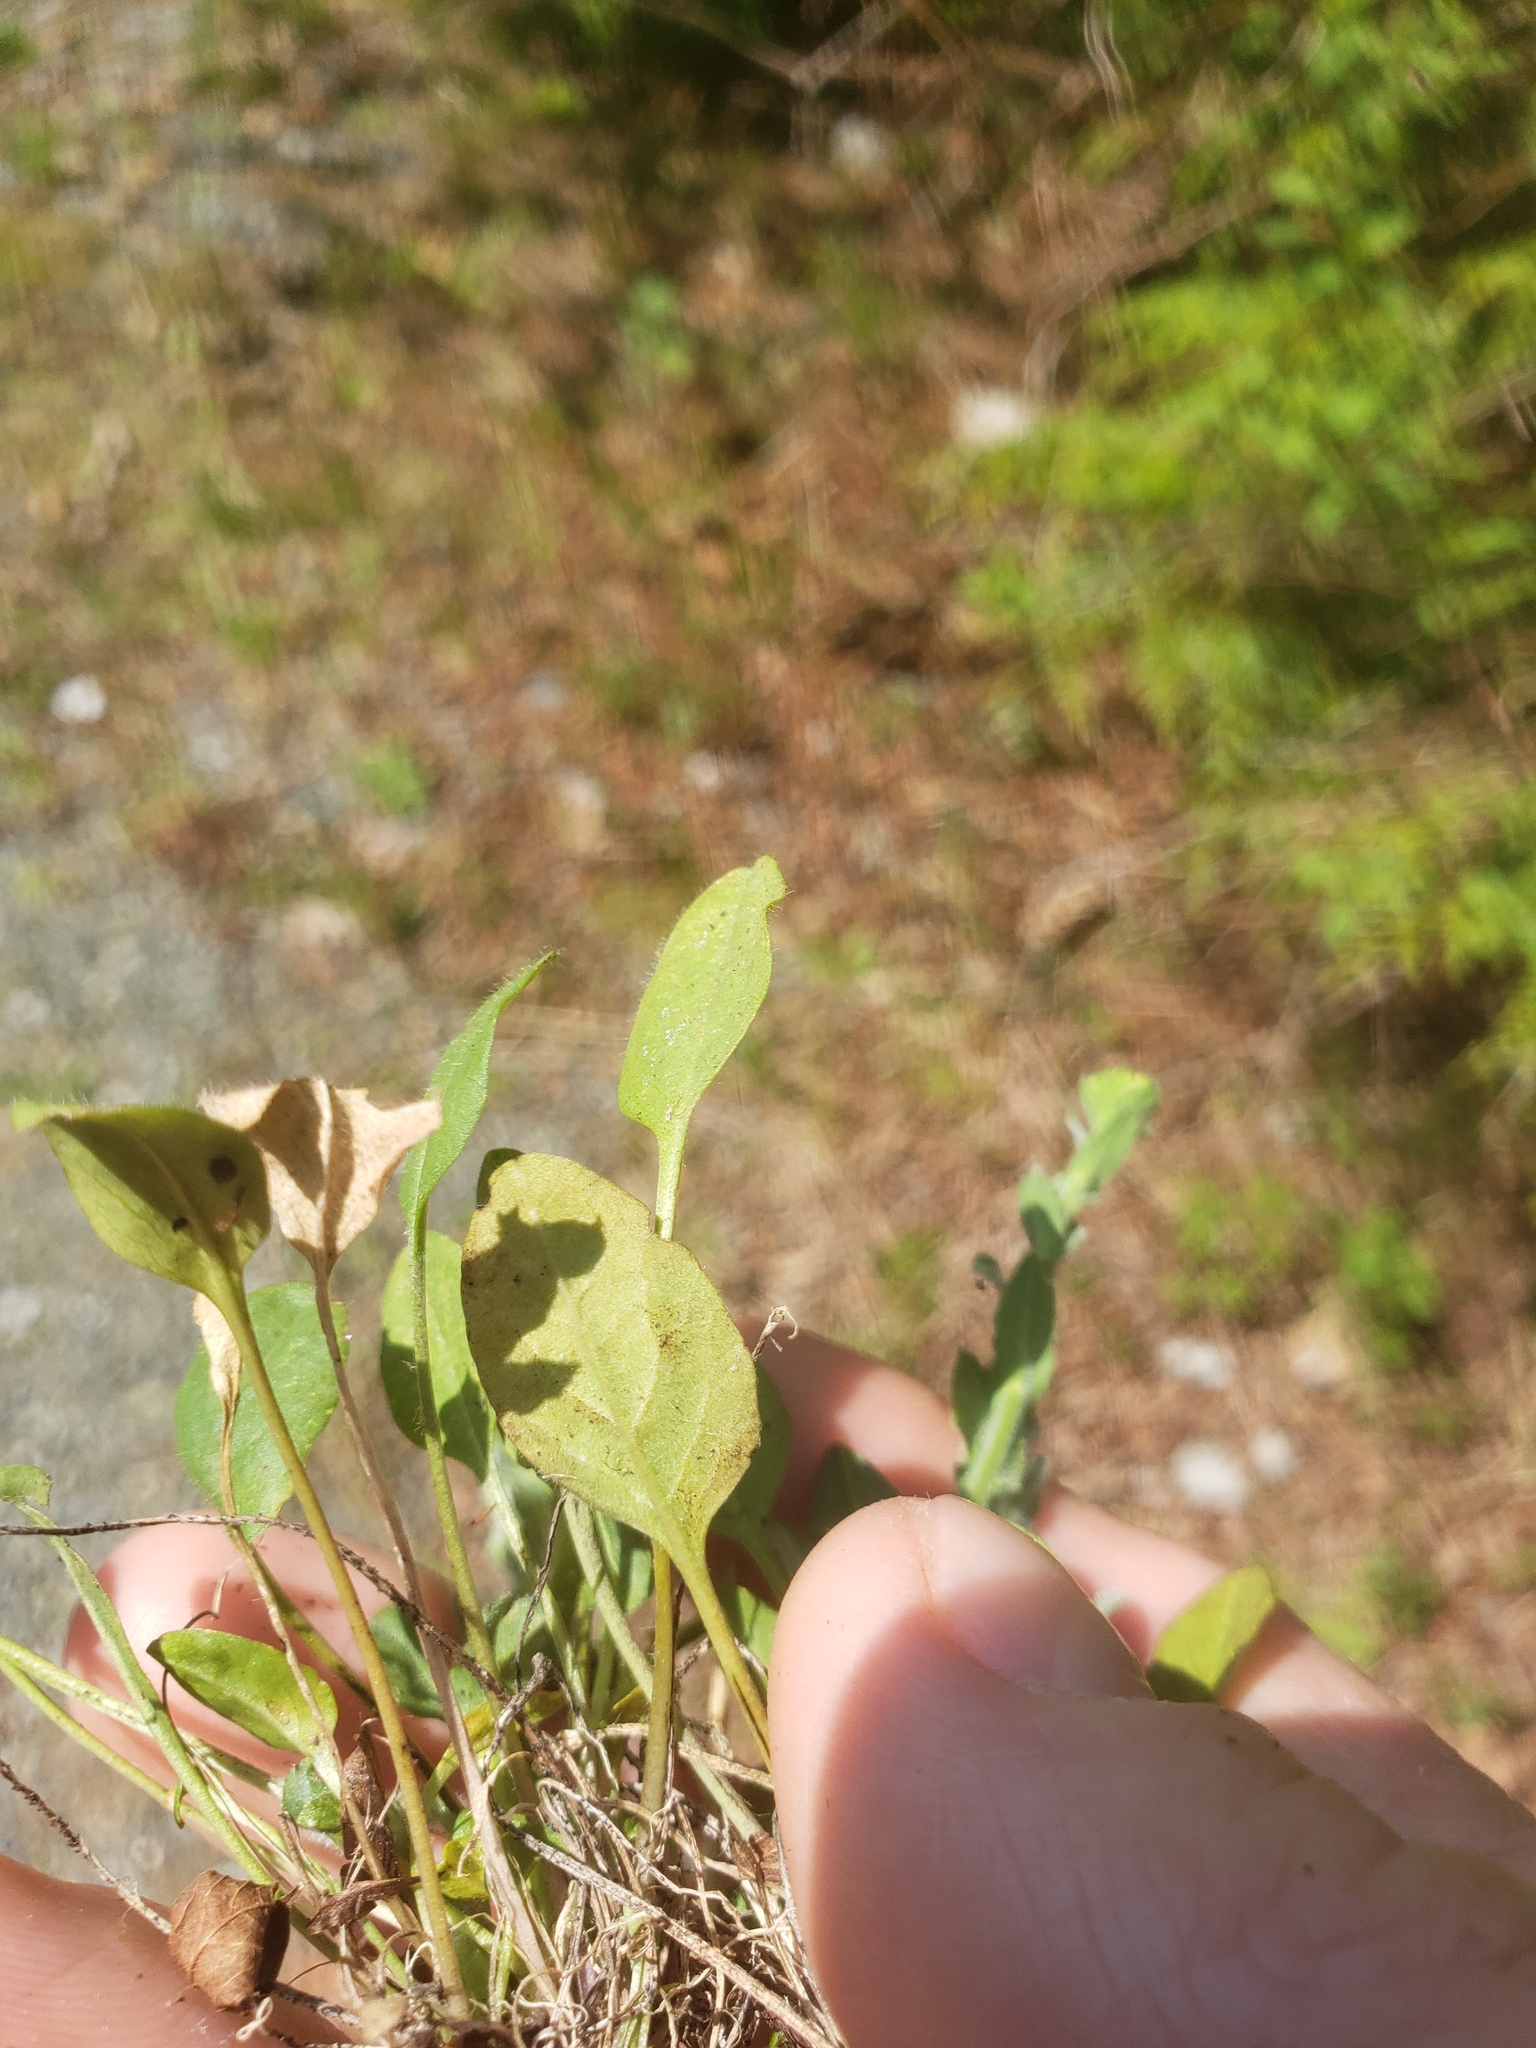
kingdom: Plantae
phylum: Tracheophyta
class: Magnoliopsida
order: Brassicales
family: Brassicaceae
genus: Lepidium
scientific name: Lepidium heterophyllum
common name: Smith's pepperwort
